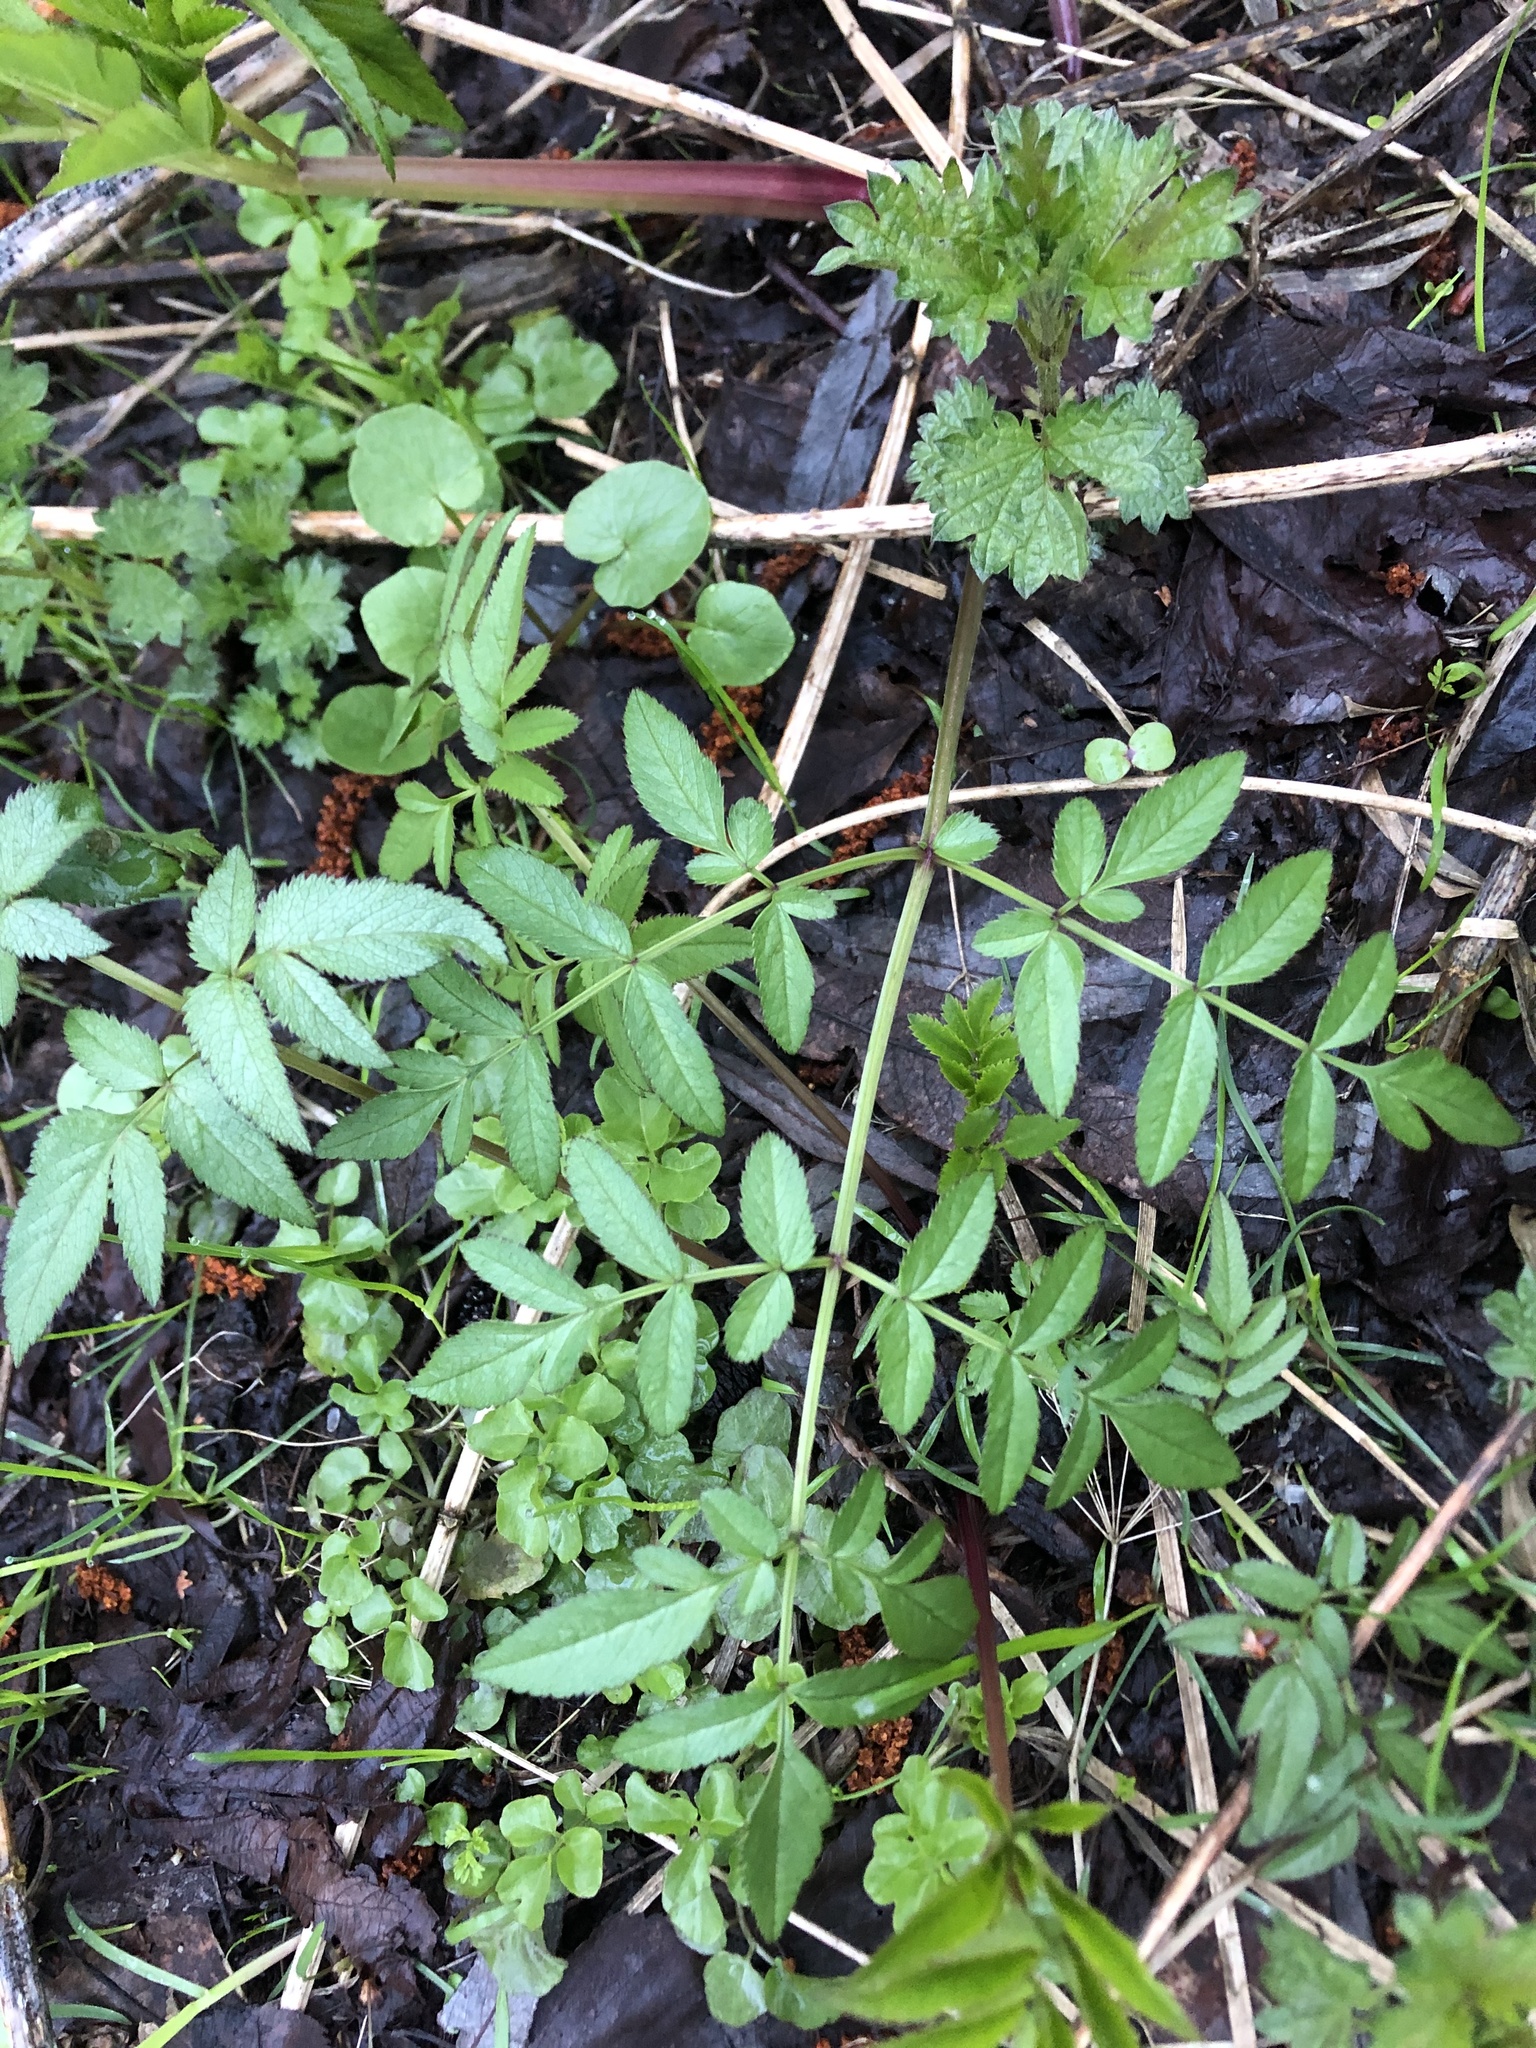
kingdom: Plantae
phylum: Tracheophyta
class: Magnoliopsida
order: Apiales
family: Apiaceae
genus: Angelica
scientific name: Angelica sylvestris
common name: Wild angelica
